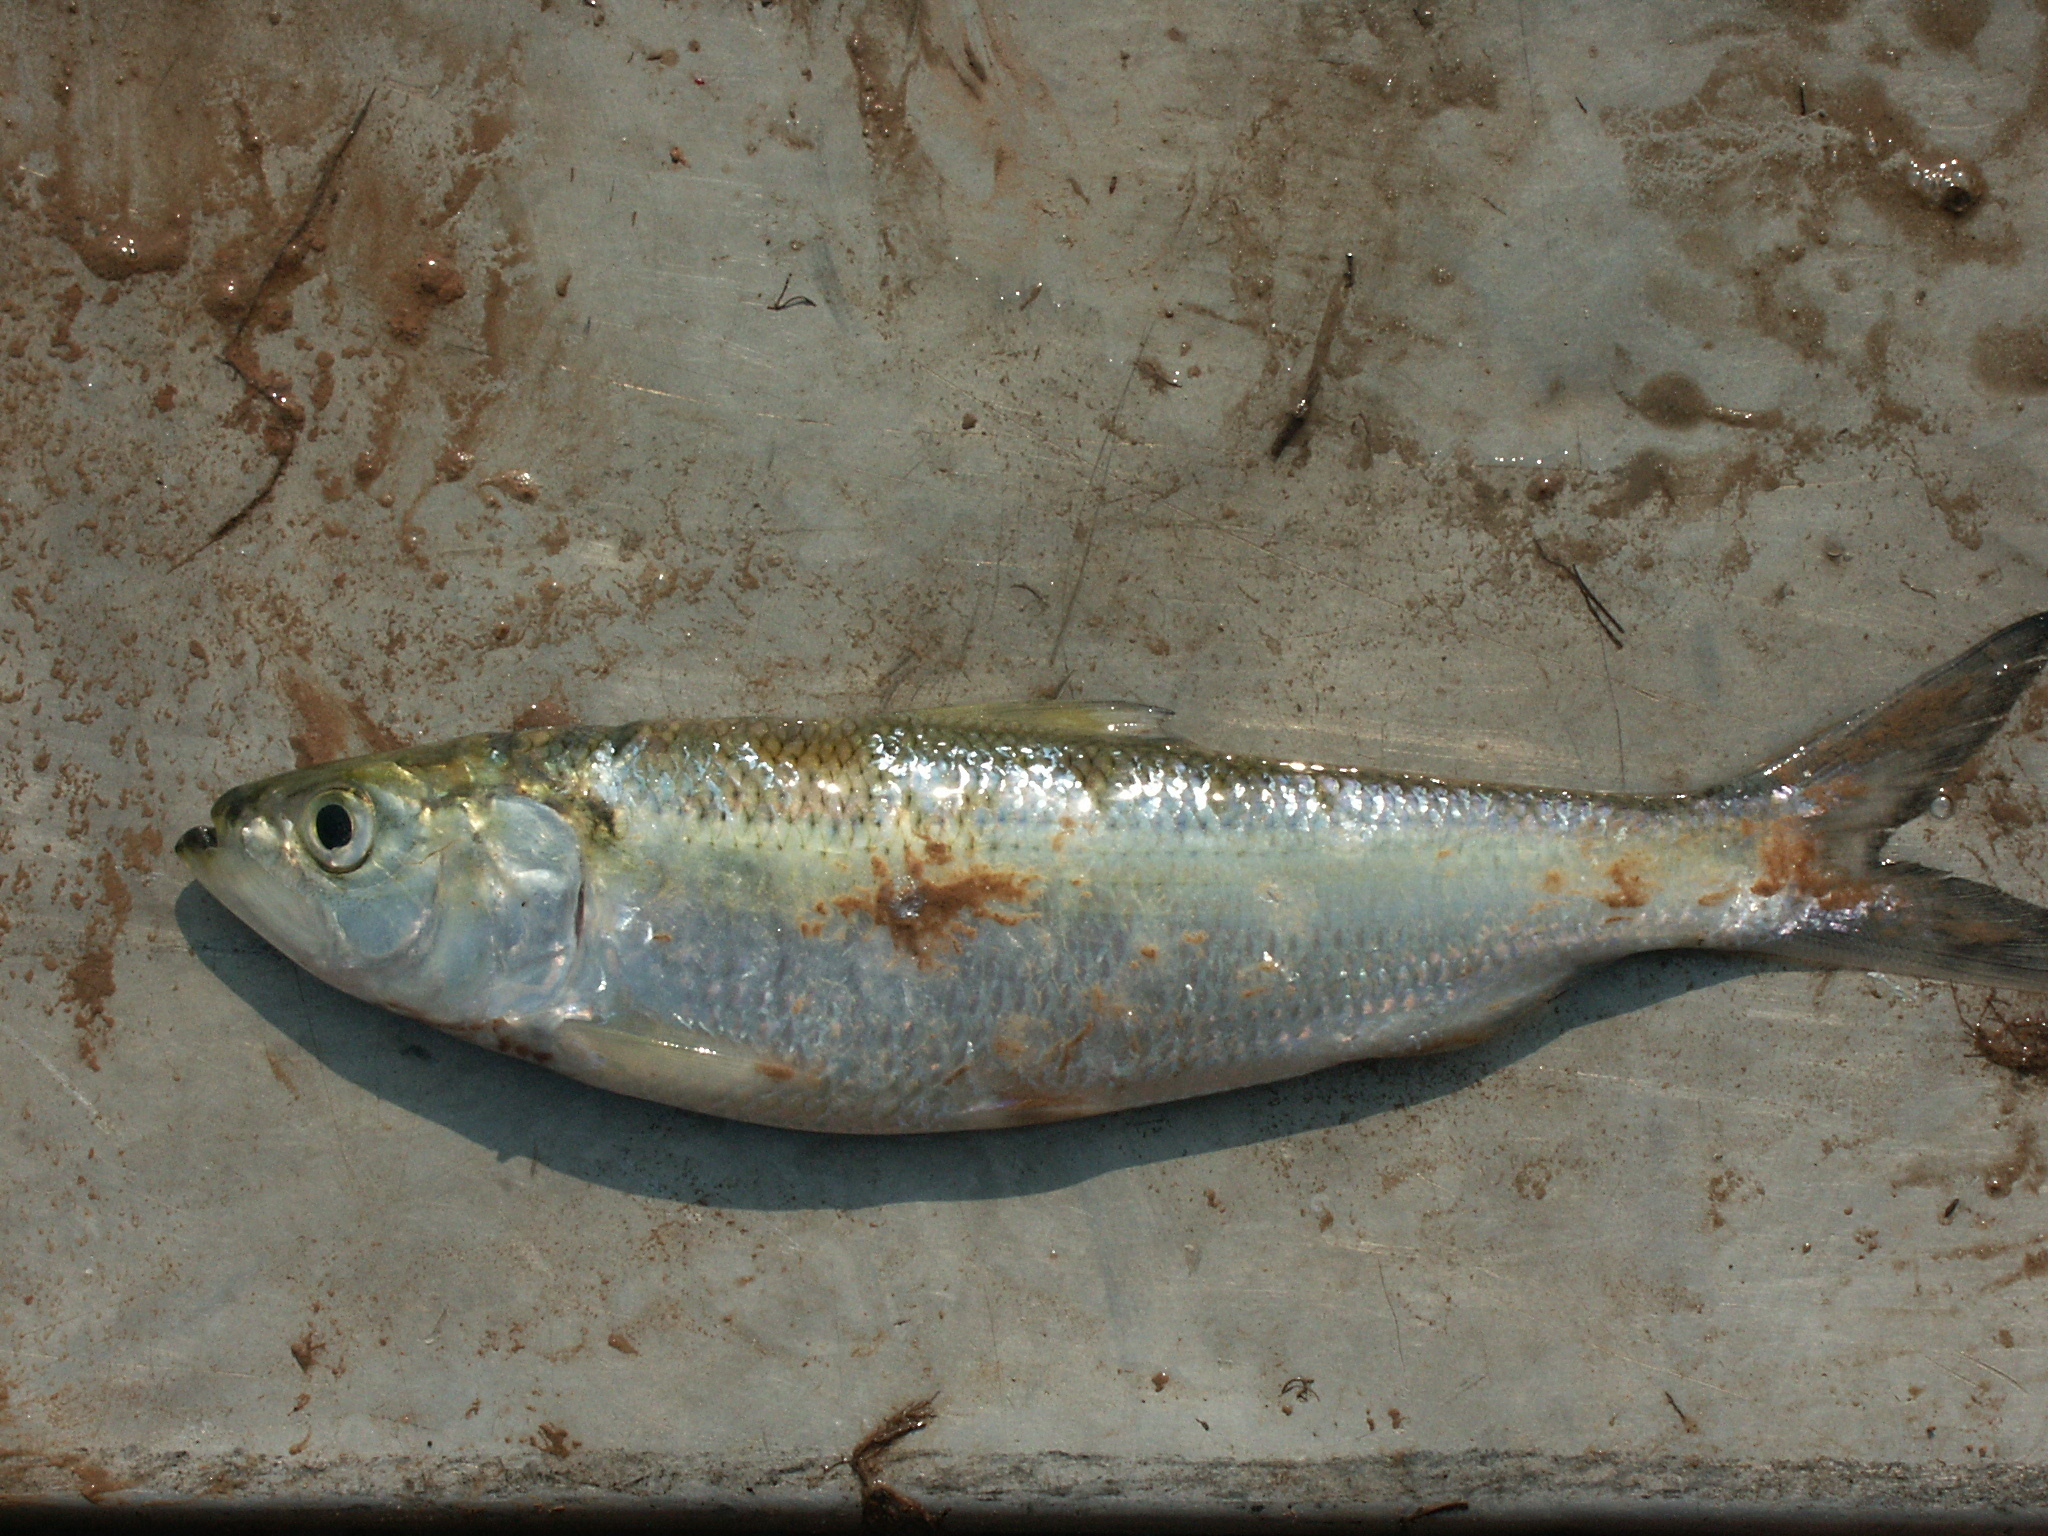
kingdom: Animalia
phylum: Chordata
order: Clupeiformes
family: Clupeidae
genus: Alosa
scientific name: Alosa chrysochloris
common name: Skipjack shad
